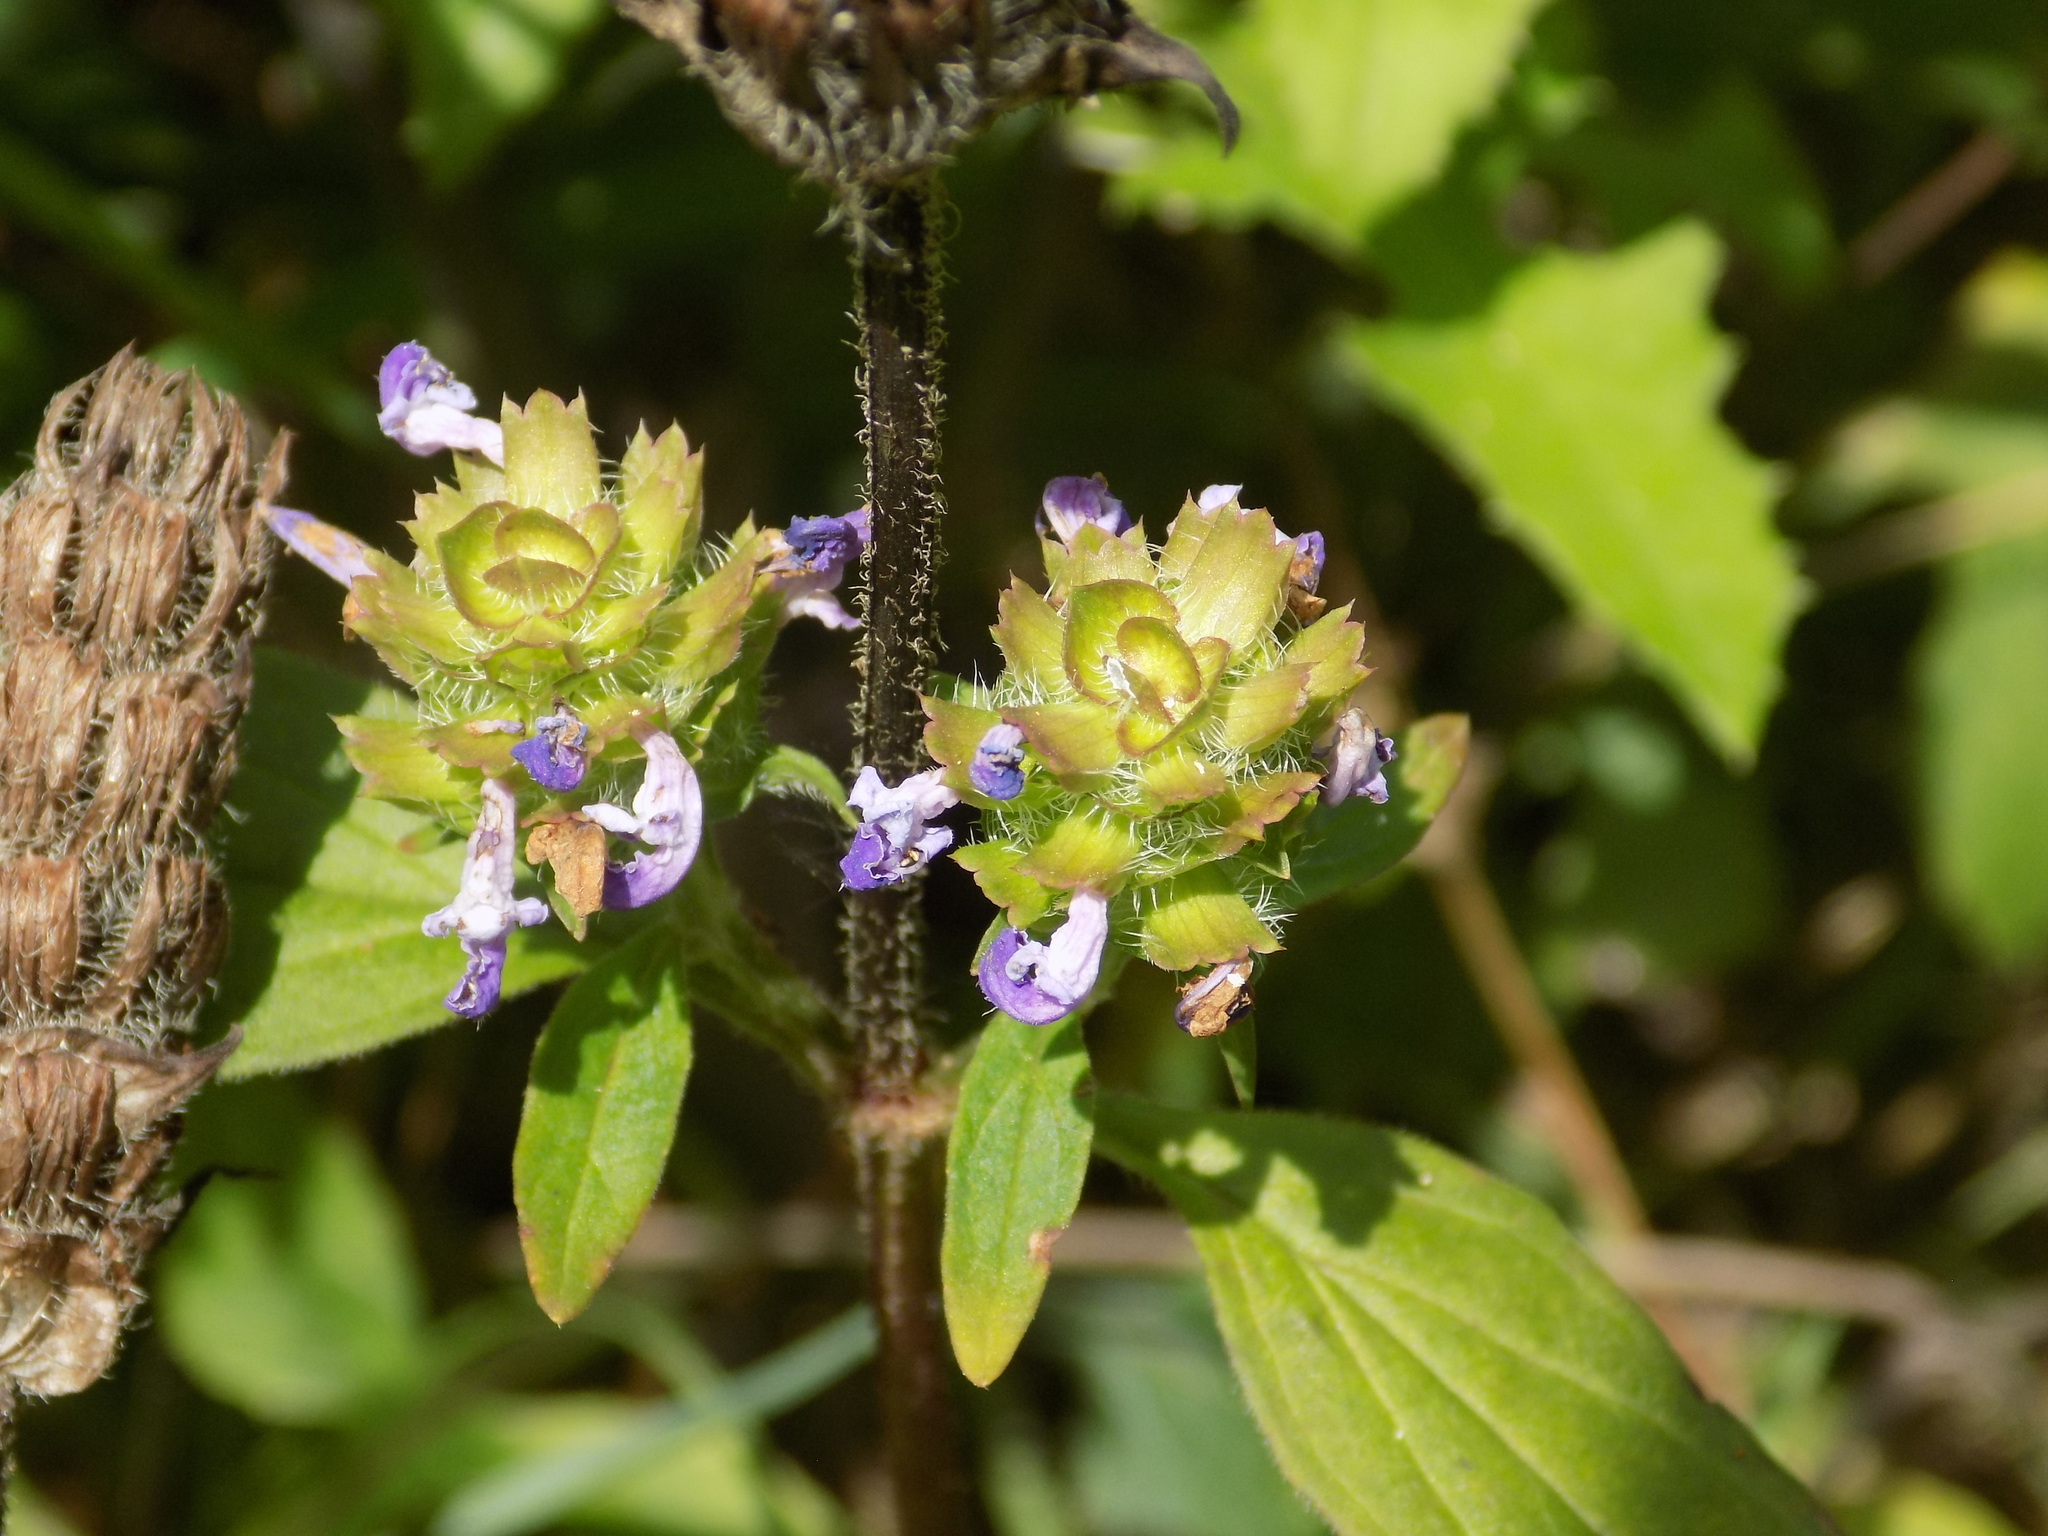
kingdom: Plantae
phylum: Tracheophyta
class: Magnoliopsida
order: Lamiales
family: Lamiaceae
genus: Prunella
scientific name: Prunella vulgaris
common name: Heal-all
